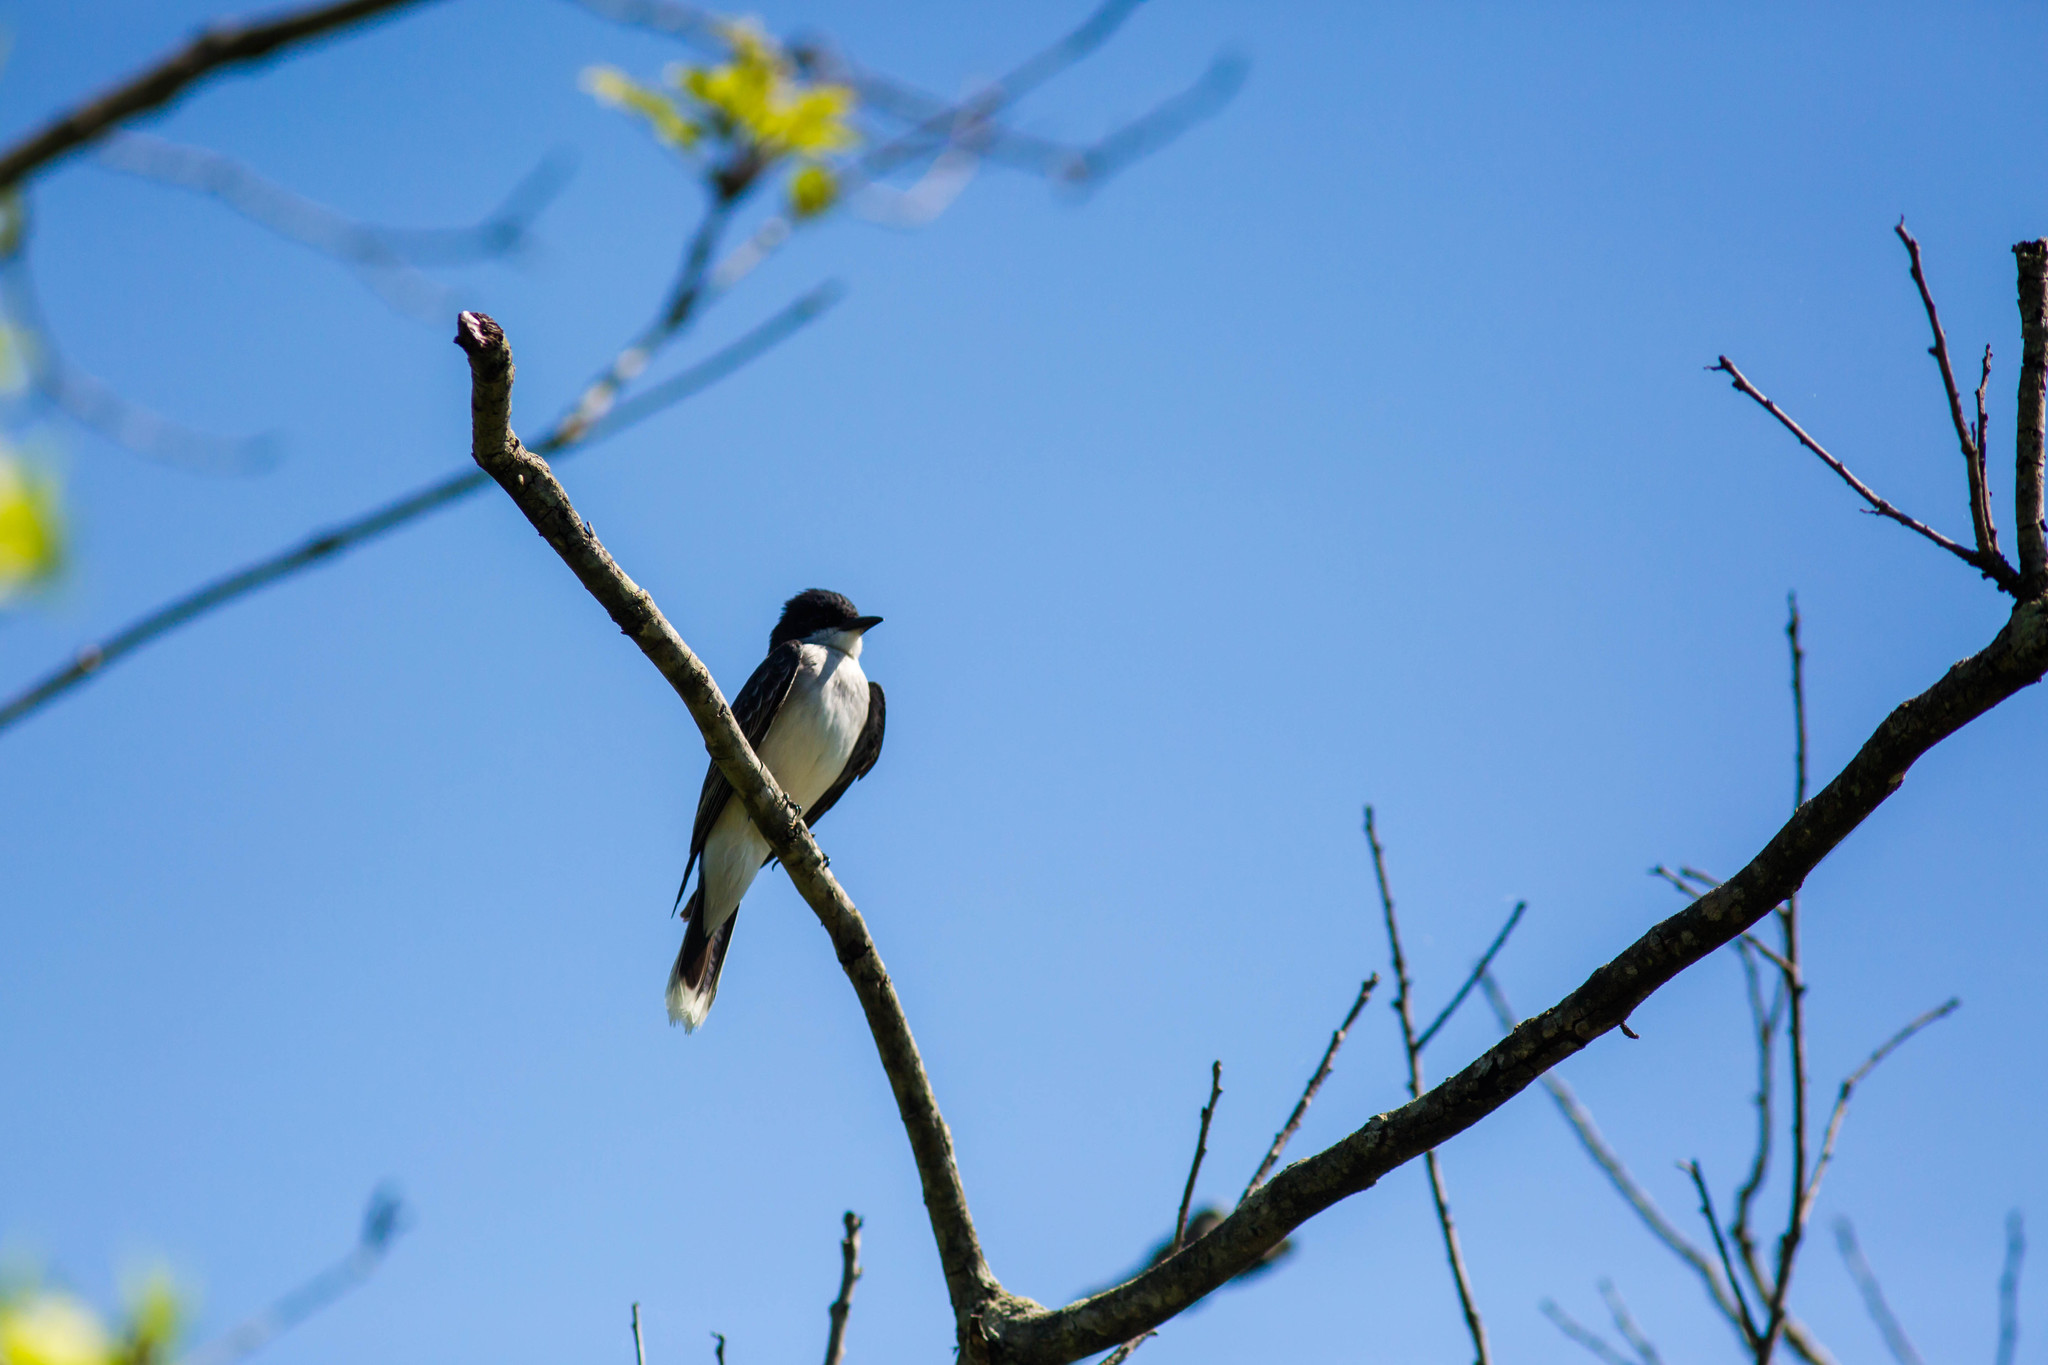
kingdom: Animalia
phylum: Chordata
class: Aves
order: Passeriformes
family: Tyrannidae
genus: Tyrannus
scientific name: Tyrannus tyrannus
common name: Eastern kingbird
